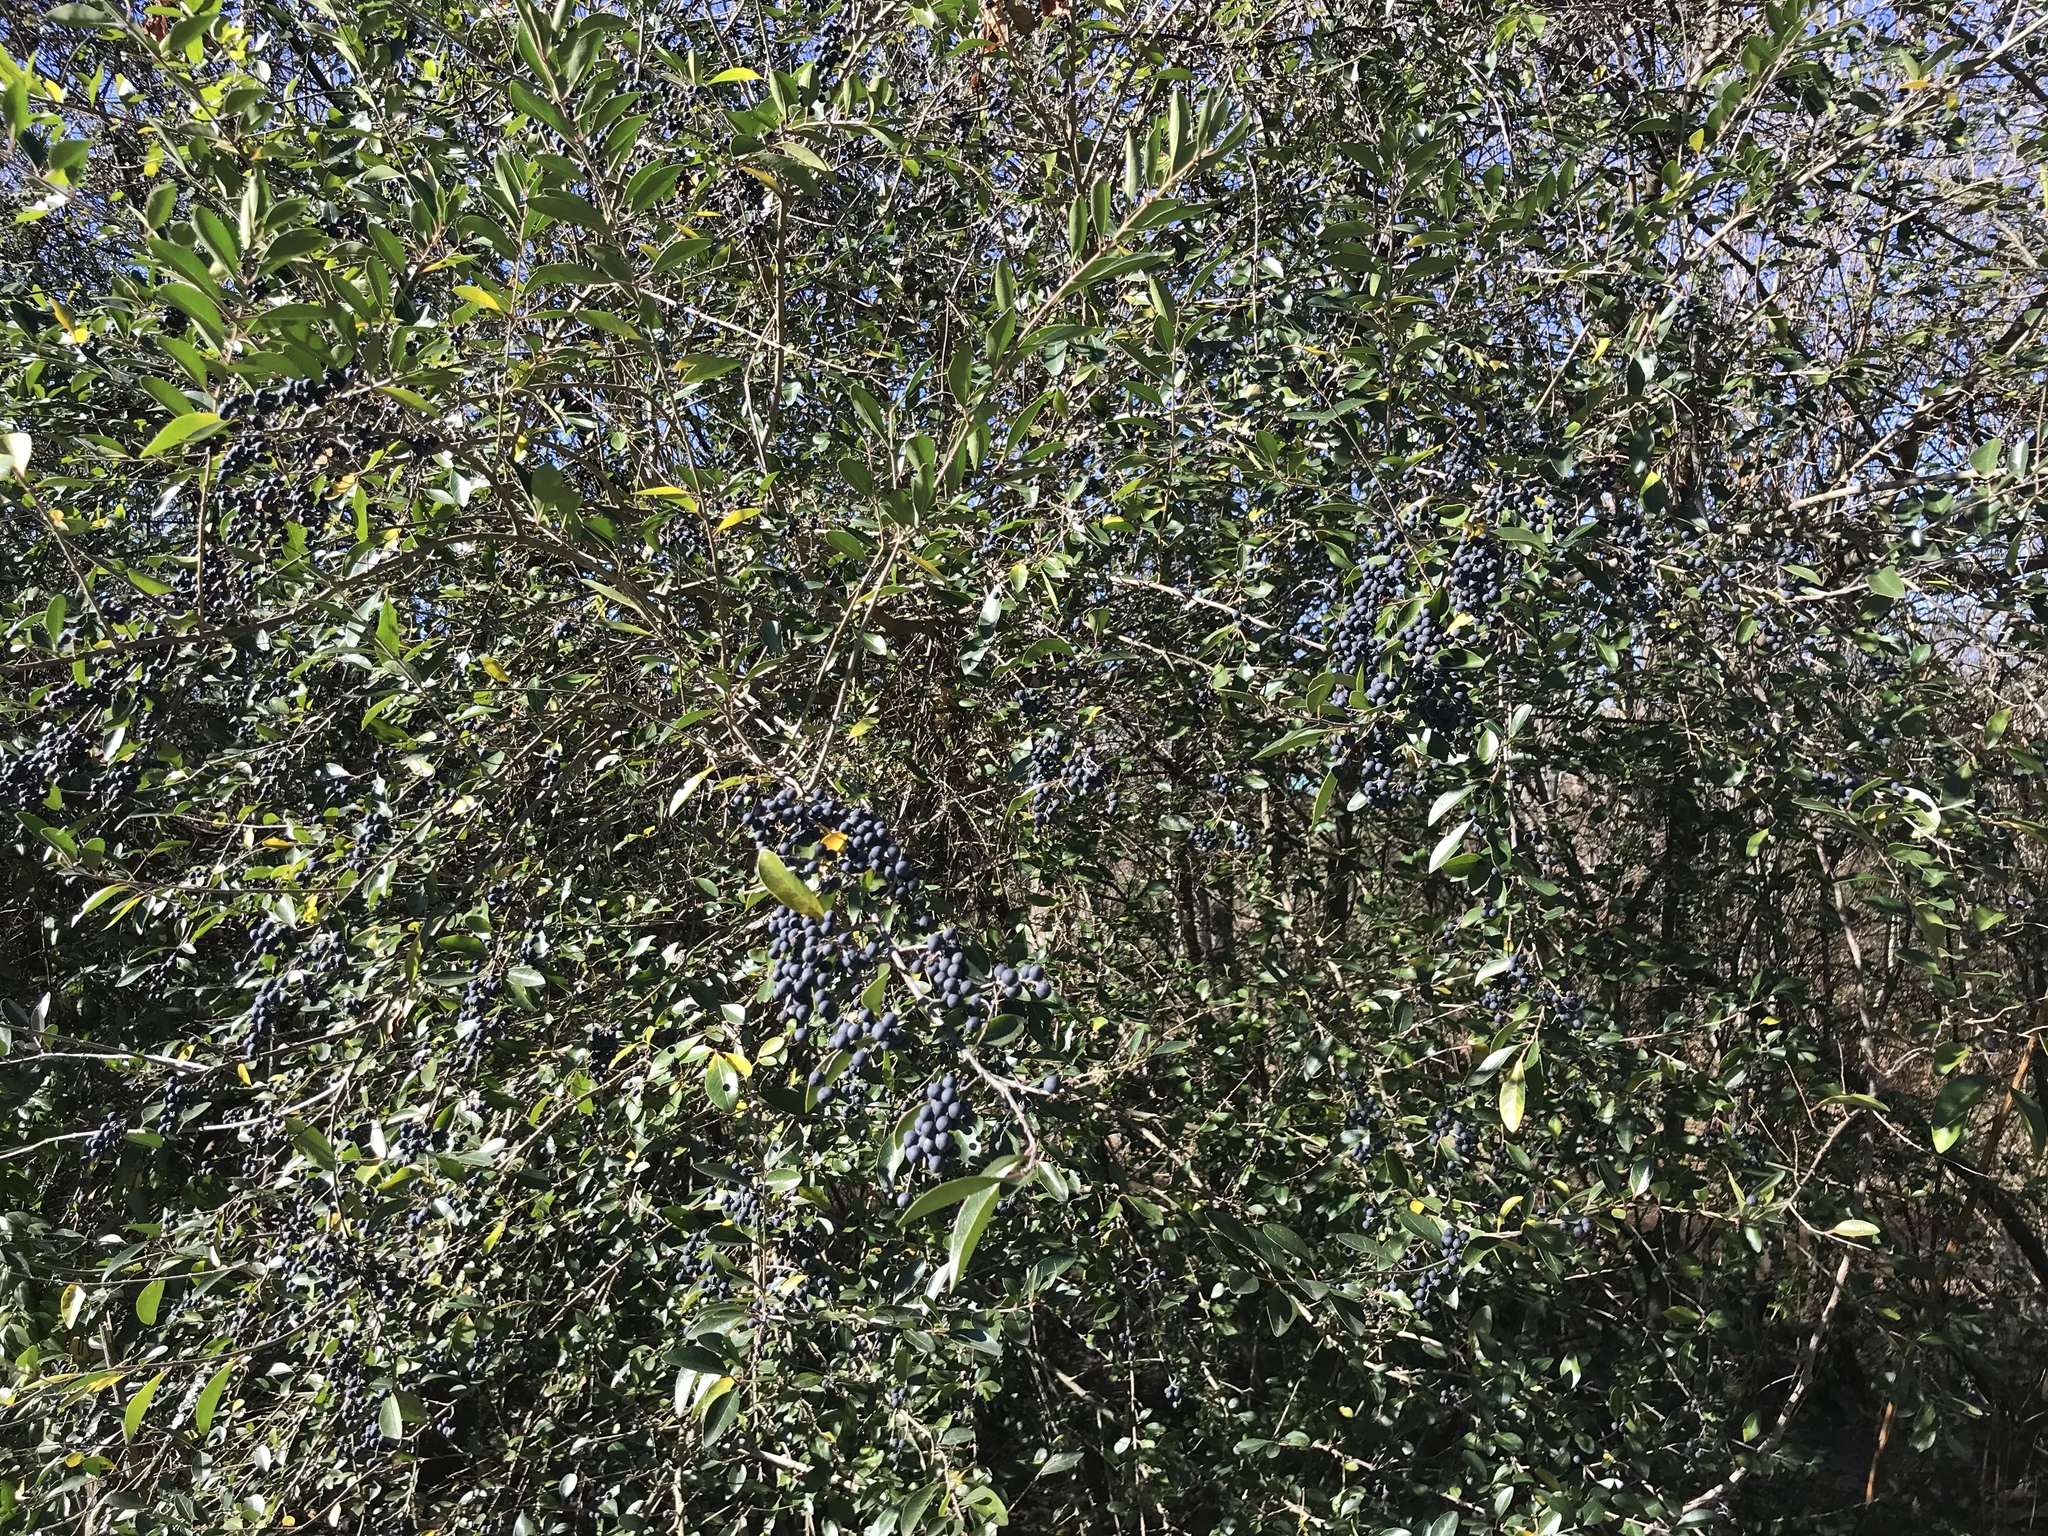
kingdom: Plantae
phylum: Tracheophyta
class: Magnoliopsida
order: Lamiales
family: Oleaceae
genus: Ligustrum
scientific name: Ligustrum sinense
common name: Chinese privet
